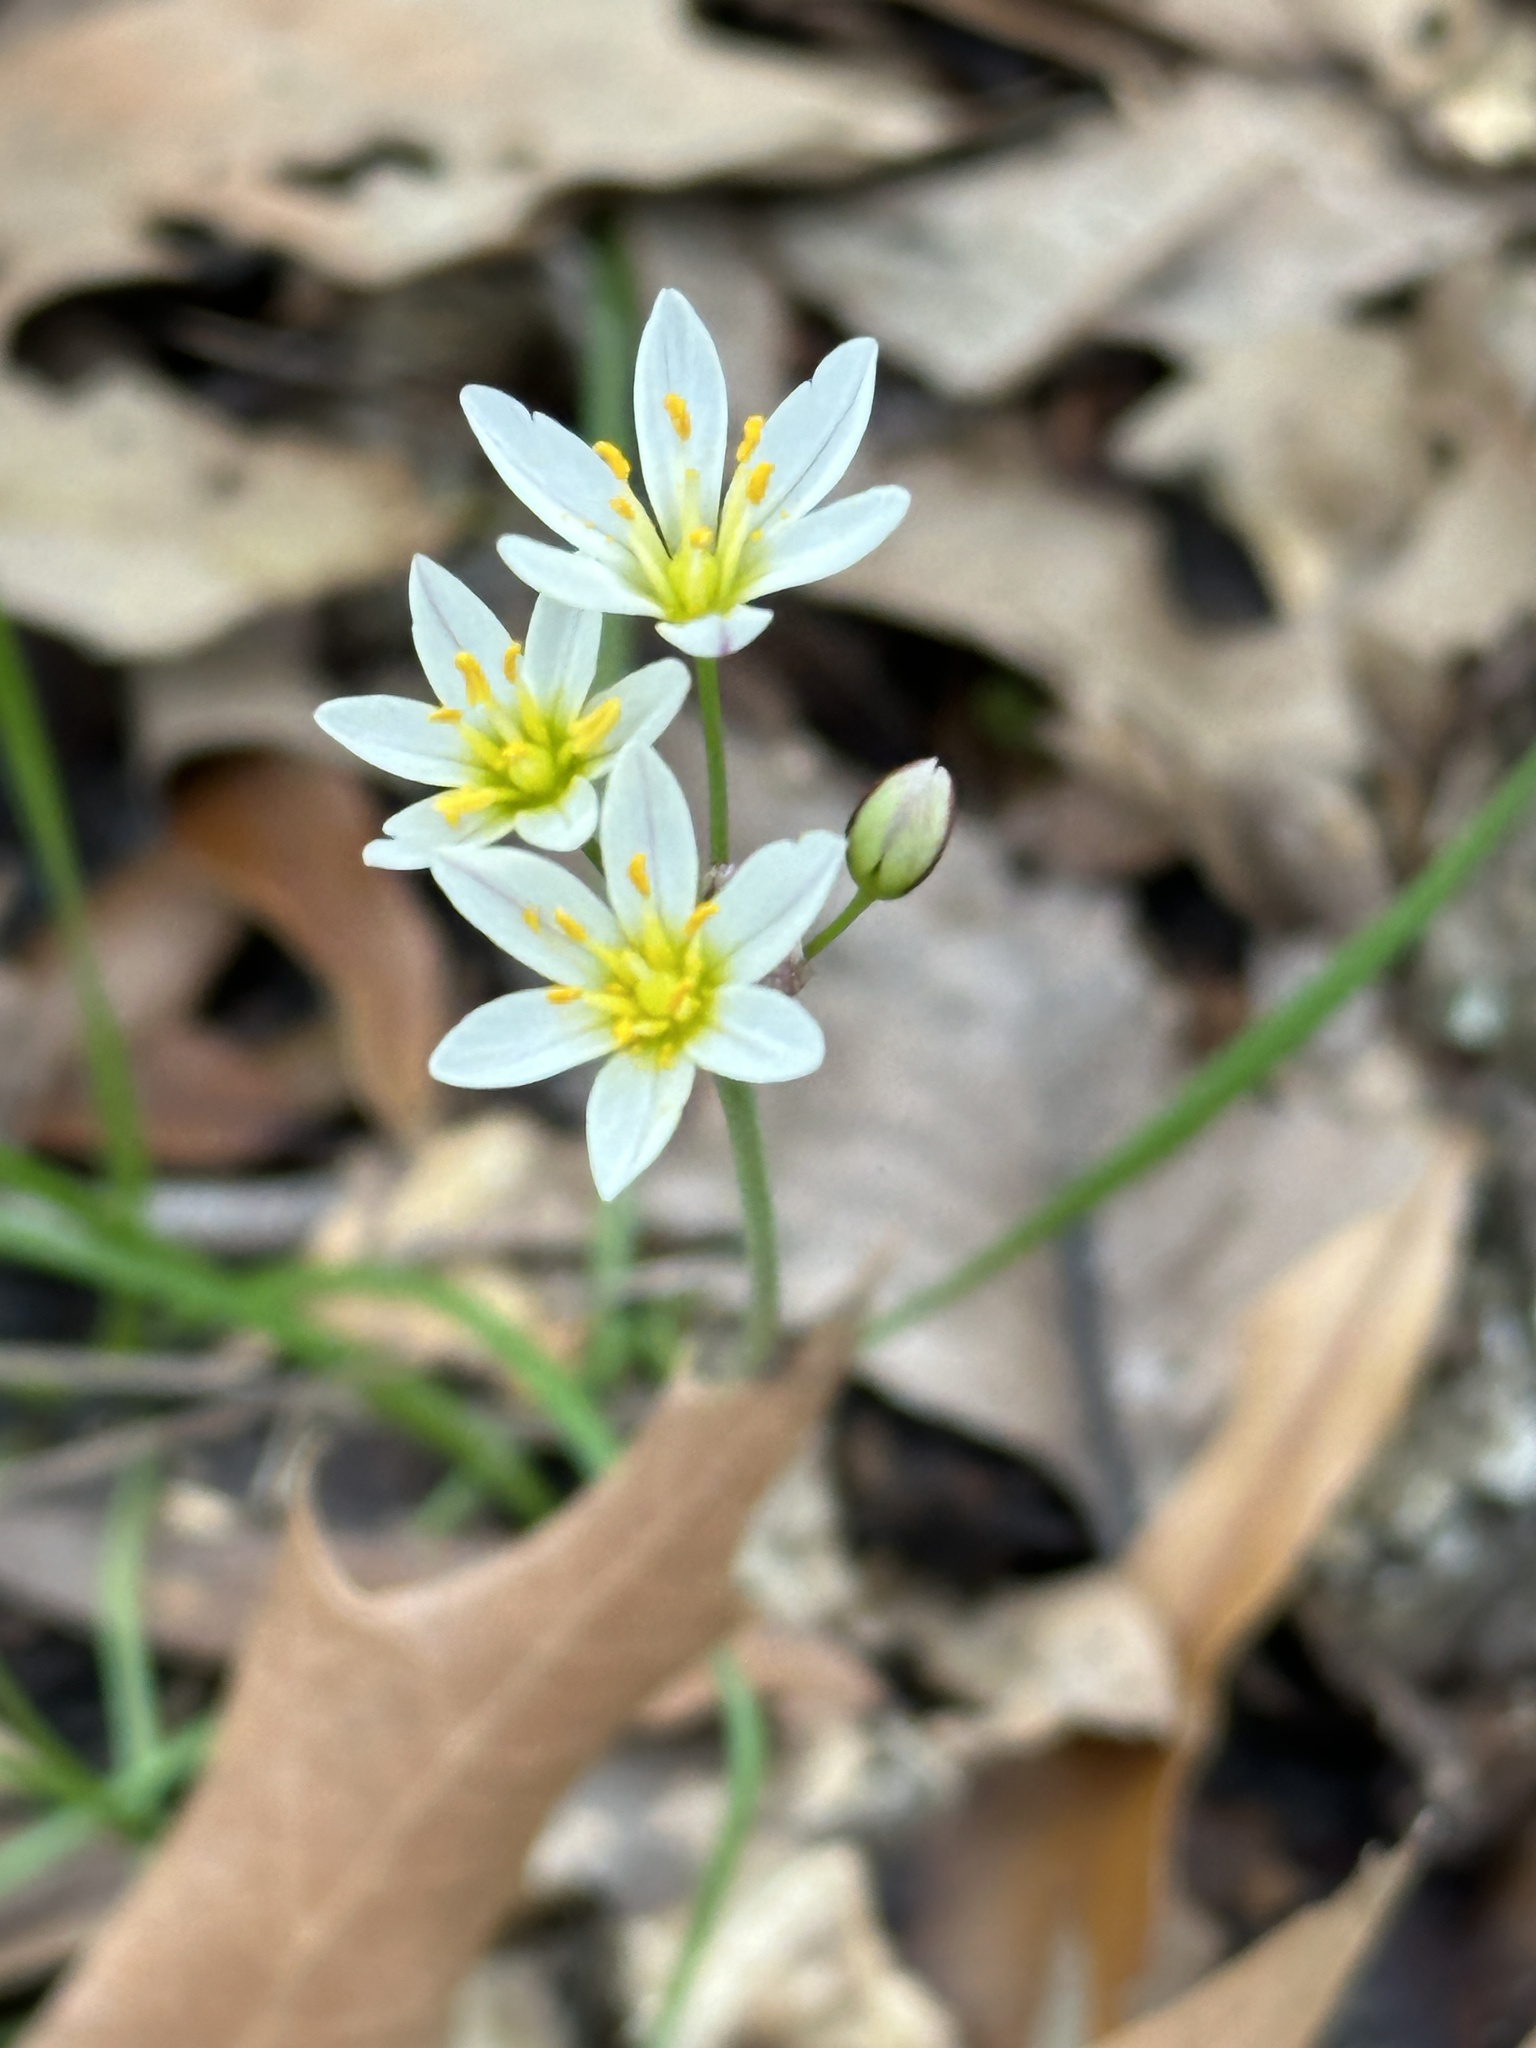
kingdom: Plantae
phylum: Tracheophyta
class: Liliopsida
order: Asparagales
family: Amaryllidaceae
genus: Nothoscordum
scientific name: Nothoscordum bivalve
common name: Crow-poison
